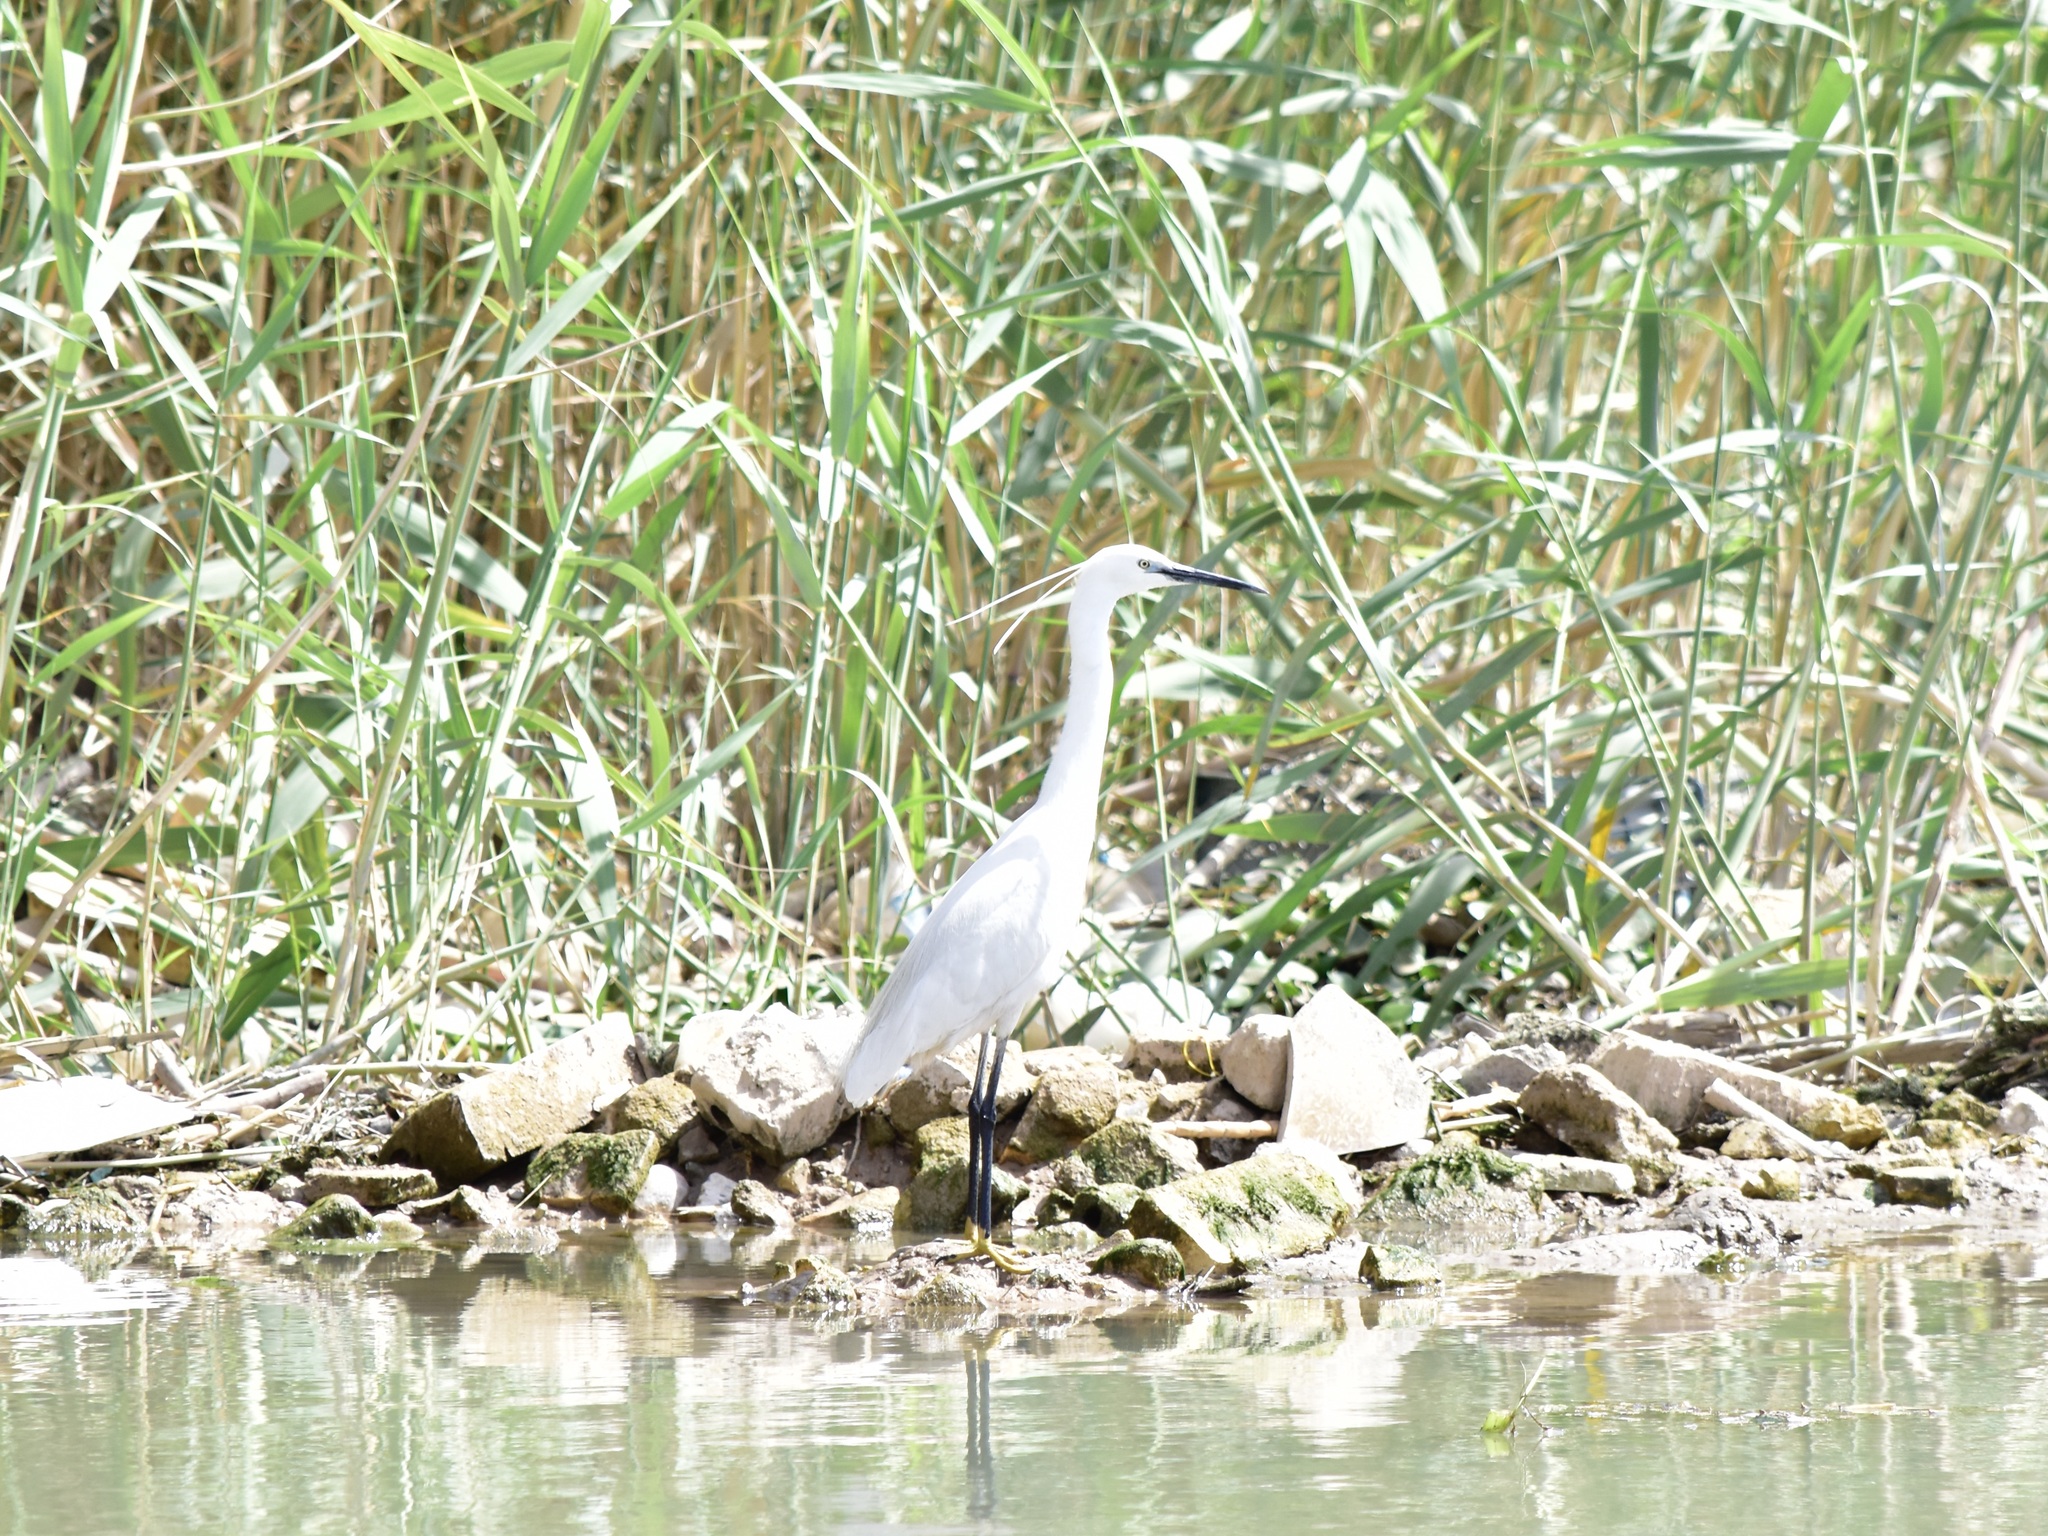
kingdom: Animalia
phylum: Chordata
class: Aves
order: Pelecaniformes
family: Ardeidae
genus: Egretta
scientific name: Egretta garzetta
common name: Little egret
